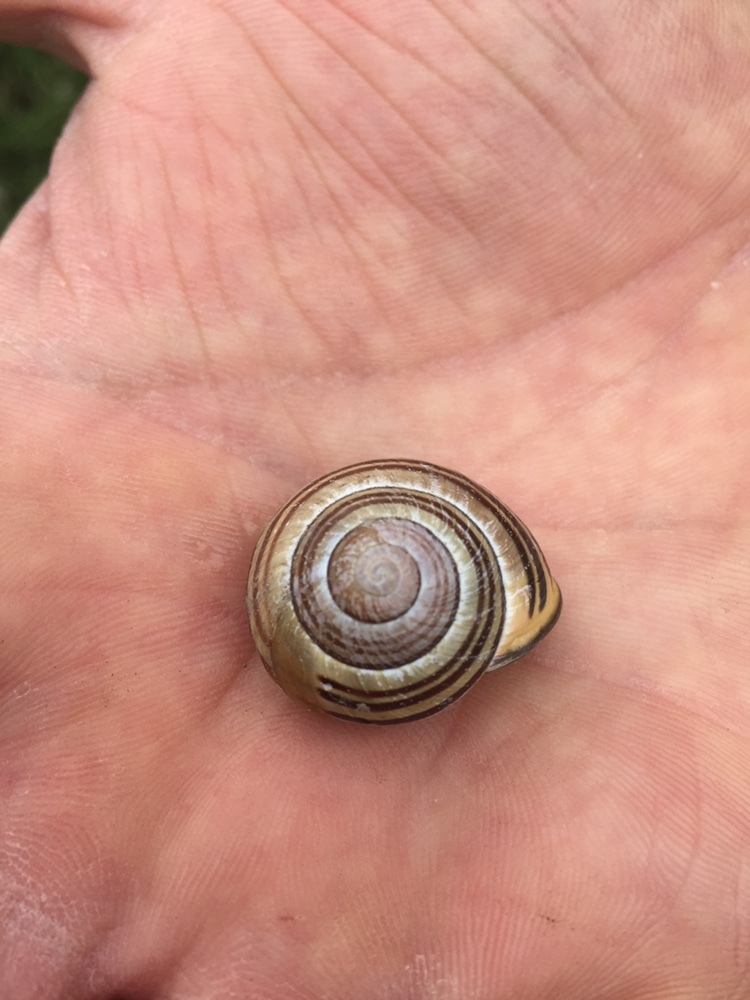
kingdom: Animalia
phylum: Mollusca
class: Gastropoda
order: Stylommatophora
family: Helicidae
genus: Cepaea
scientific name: Cepaea nemoralis
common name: Grovesnail
